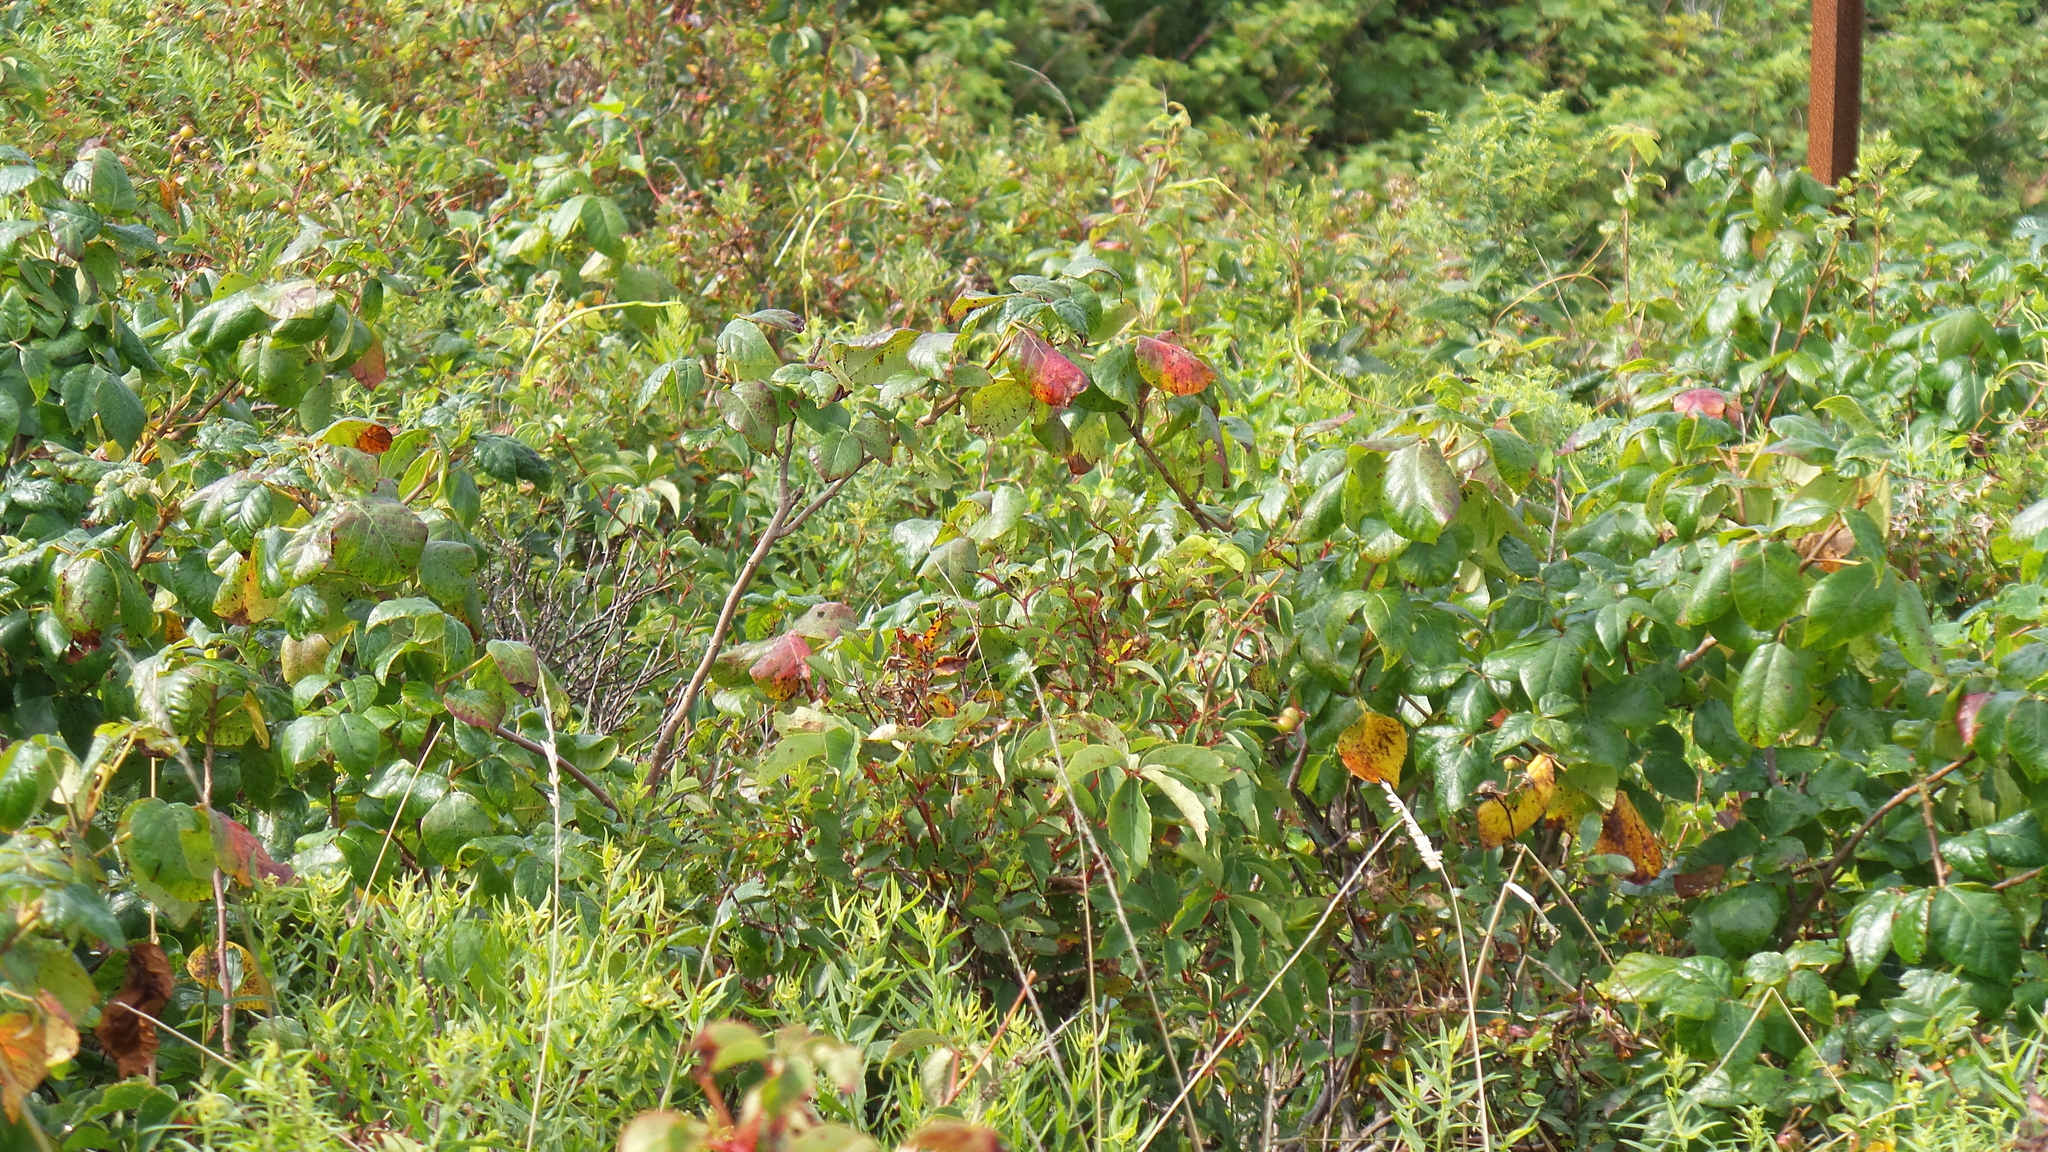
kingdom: Plantae
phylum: Tracheophyta
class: Magnoliopsida
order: Sapindales
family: Anacardiaceae
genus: Toxicodendron
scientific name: Toxicodendron radicans
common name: Poison ivy
